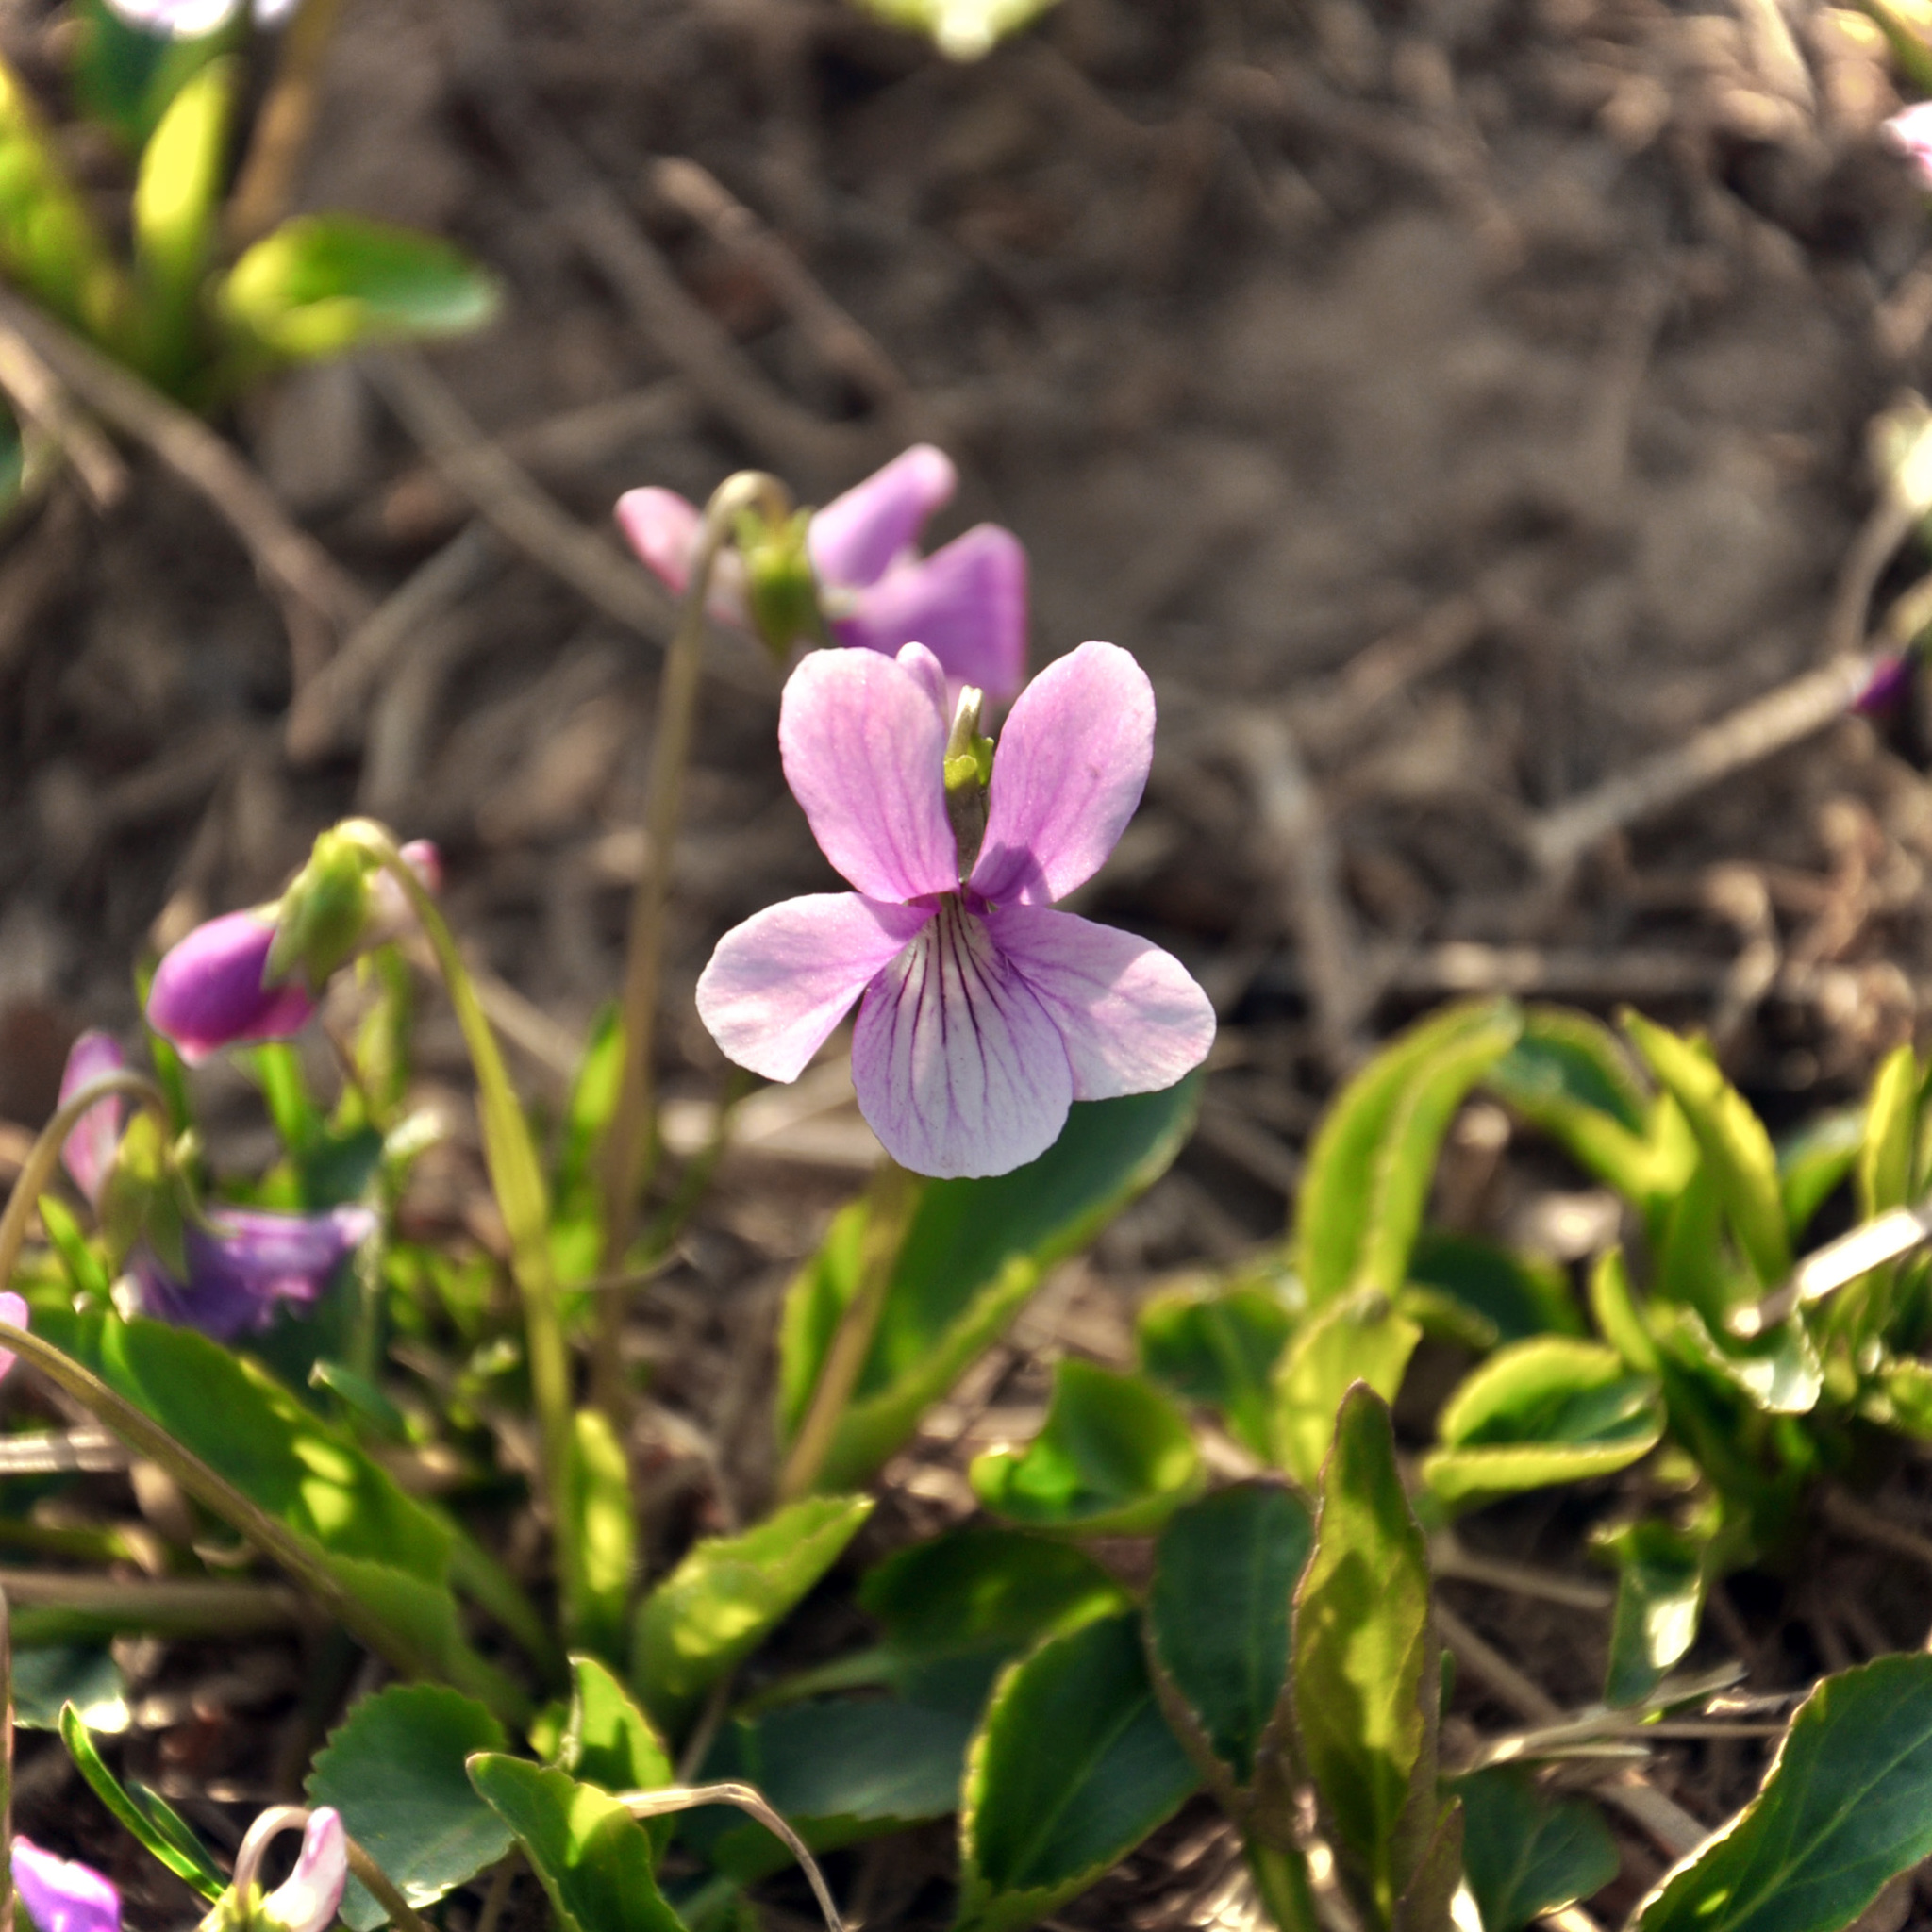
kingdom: Plantae
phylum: Tracheophyta
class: Magnoliopsida
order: Malpighiales
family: Violaceae
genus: Viola
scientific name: Viola prionantha
